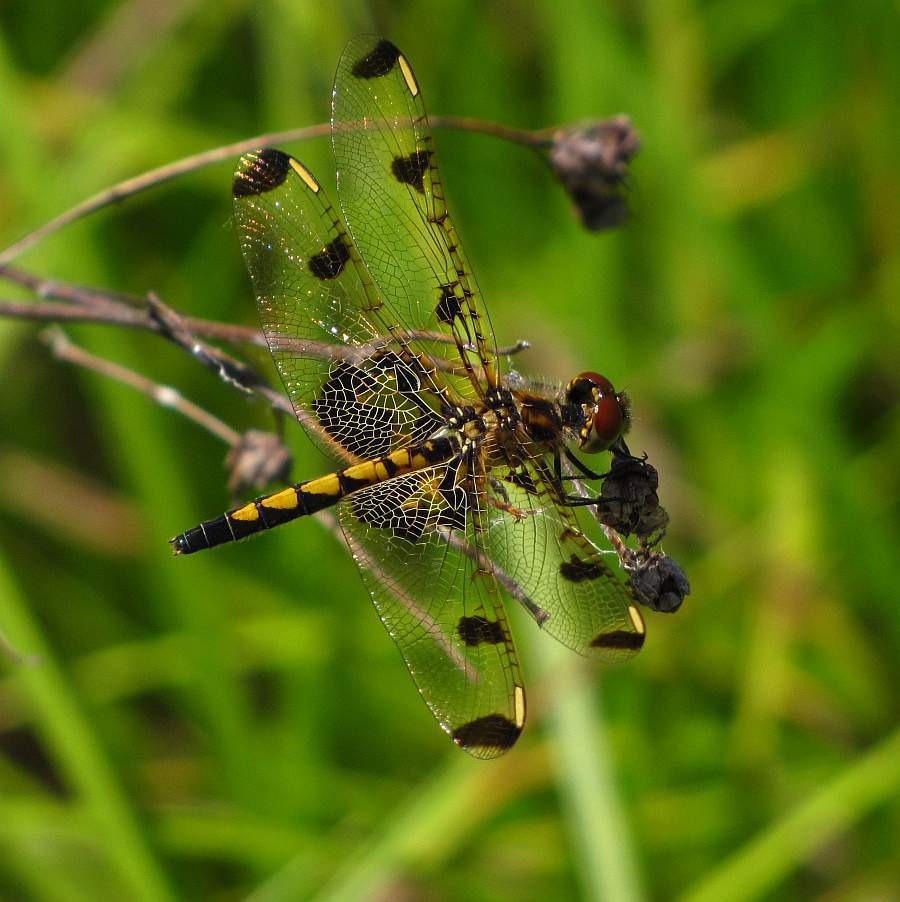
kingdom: Animalia
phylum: Arthropoda
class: Insecta
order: Odonata
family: Libellulidae
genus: Celithemis
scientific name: Celithemis elisa
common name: Calico pennant
